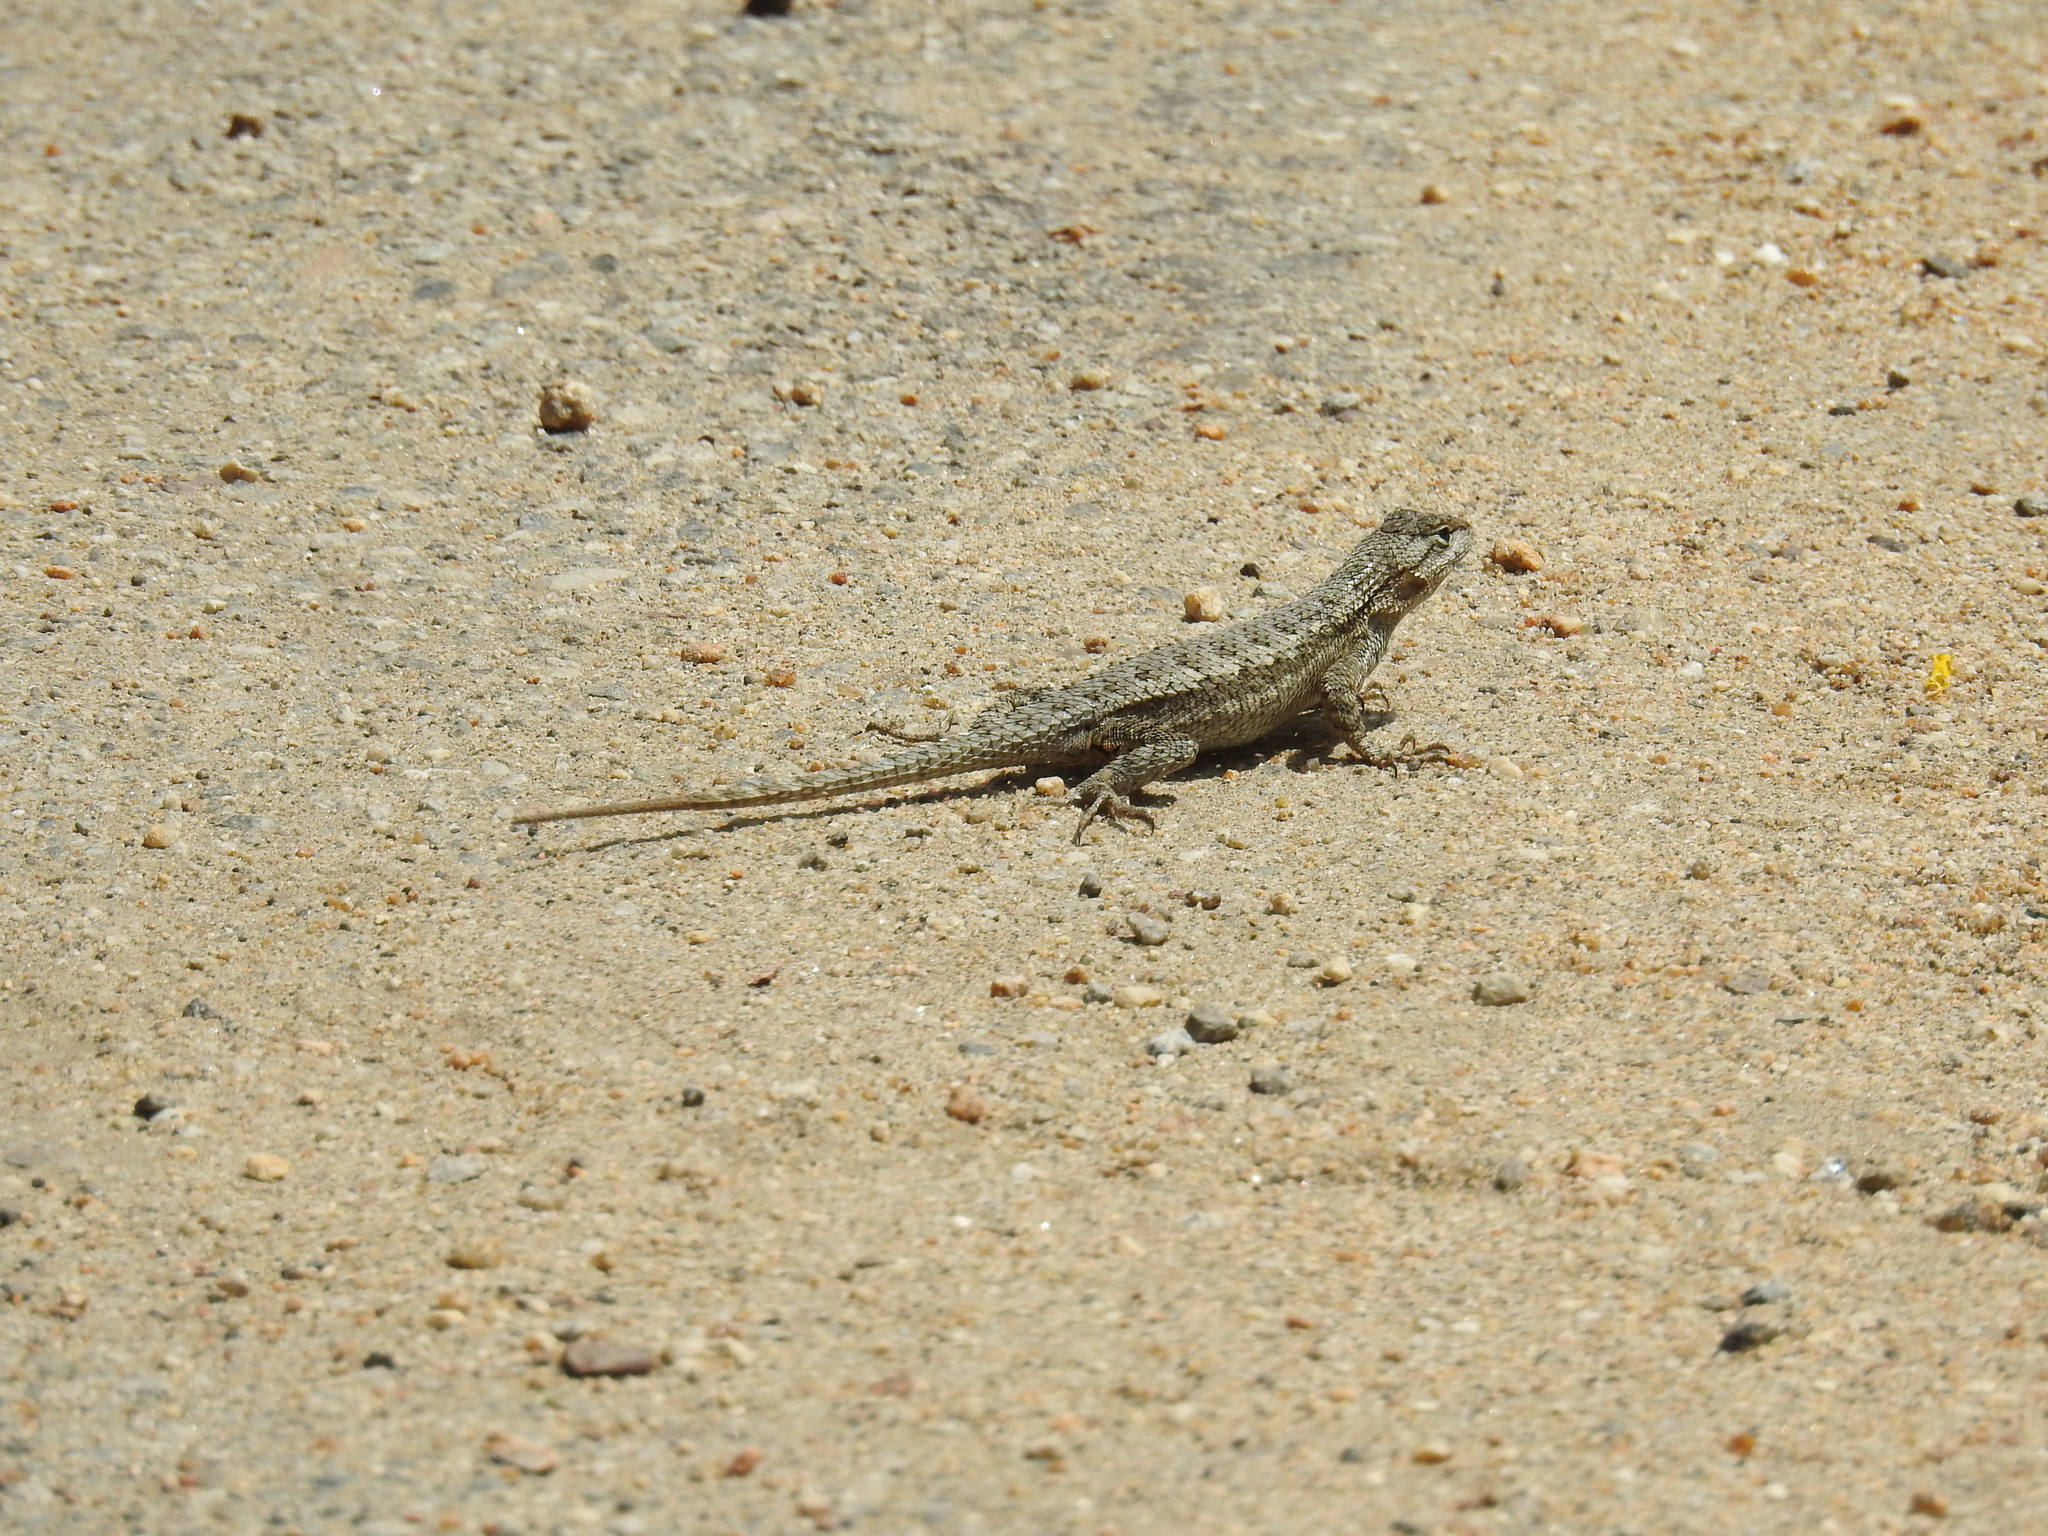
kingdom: Animalia
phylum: Chordata
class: Squamata
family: Phrynosomatidae
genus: Sceloporus
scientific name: Sceloporus occidentalis
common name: Western fence lizard
